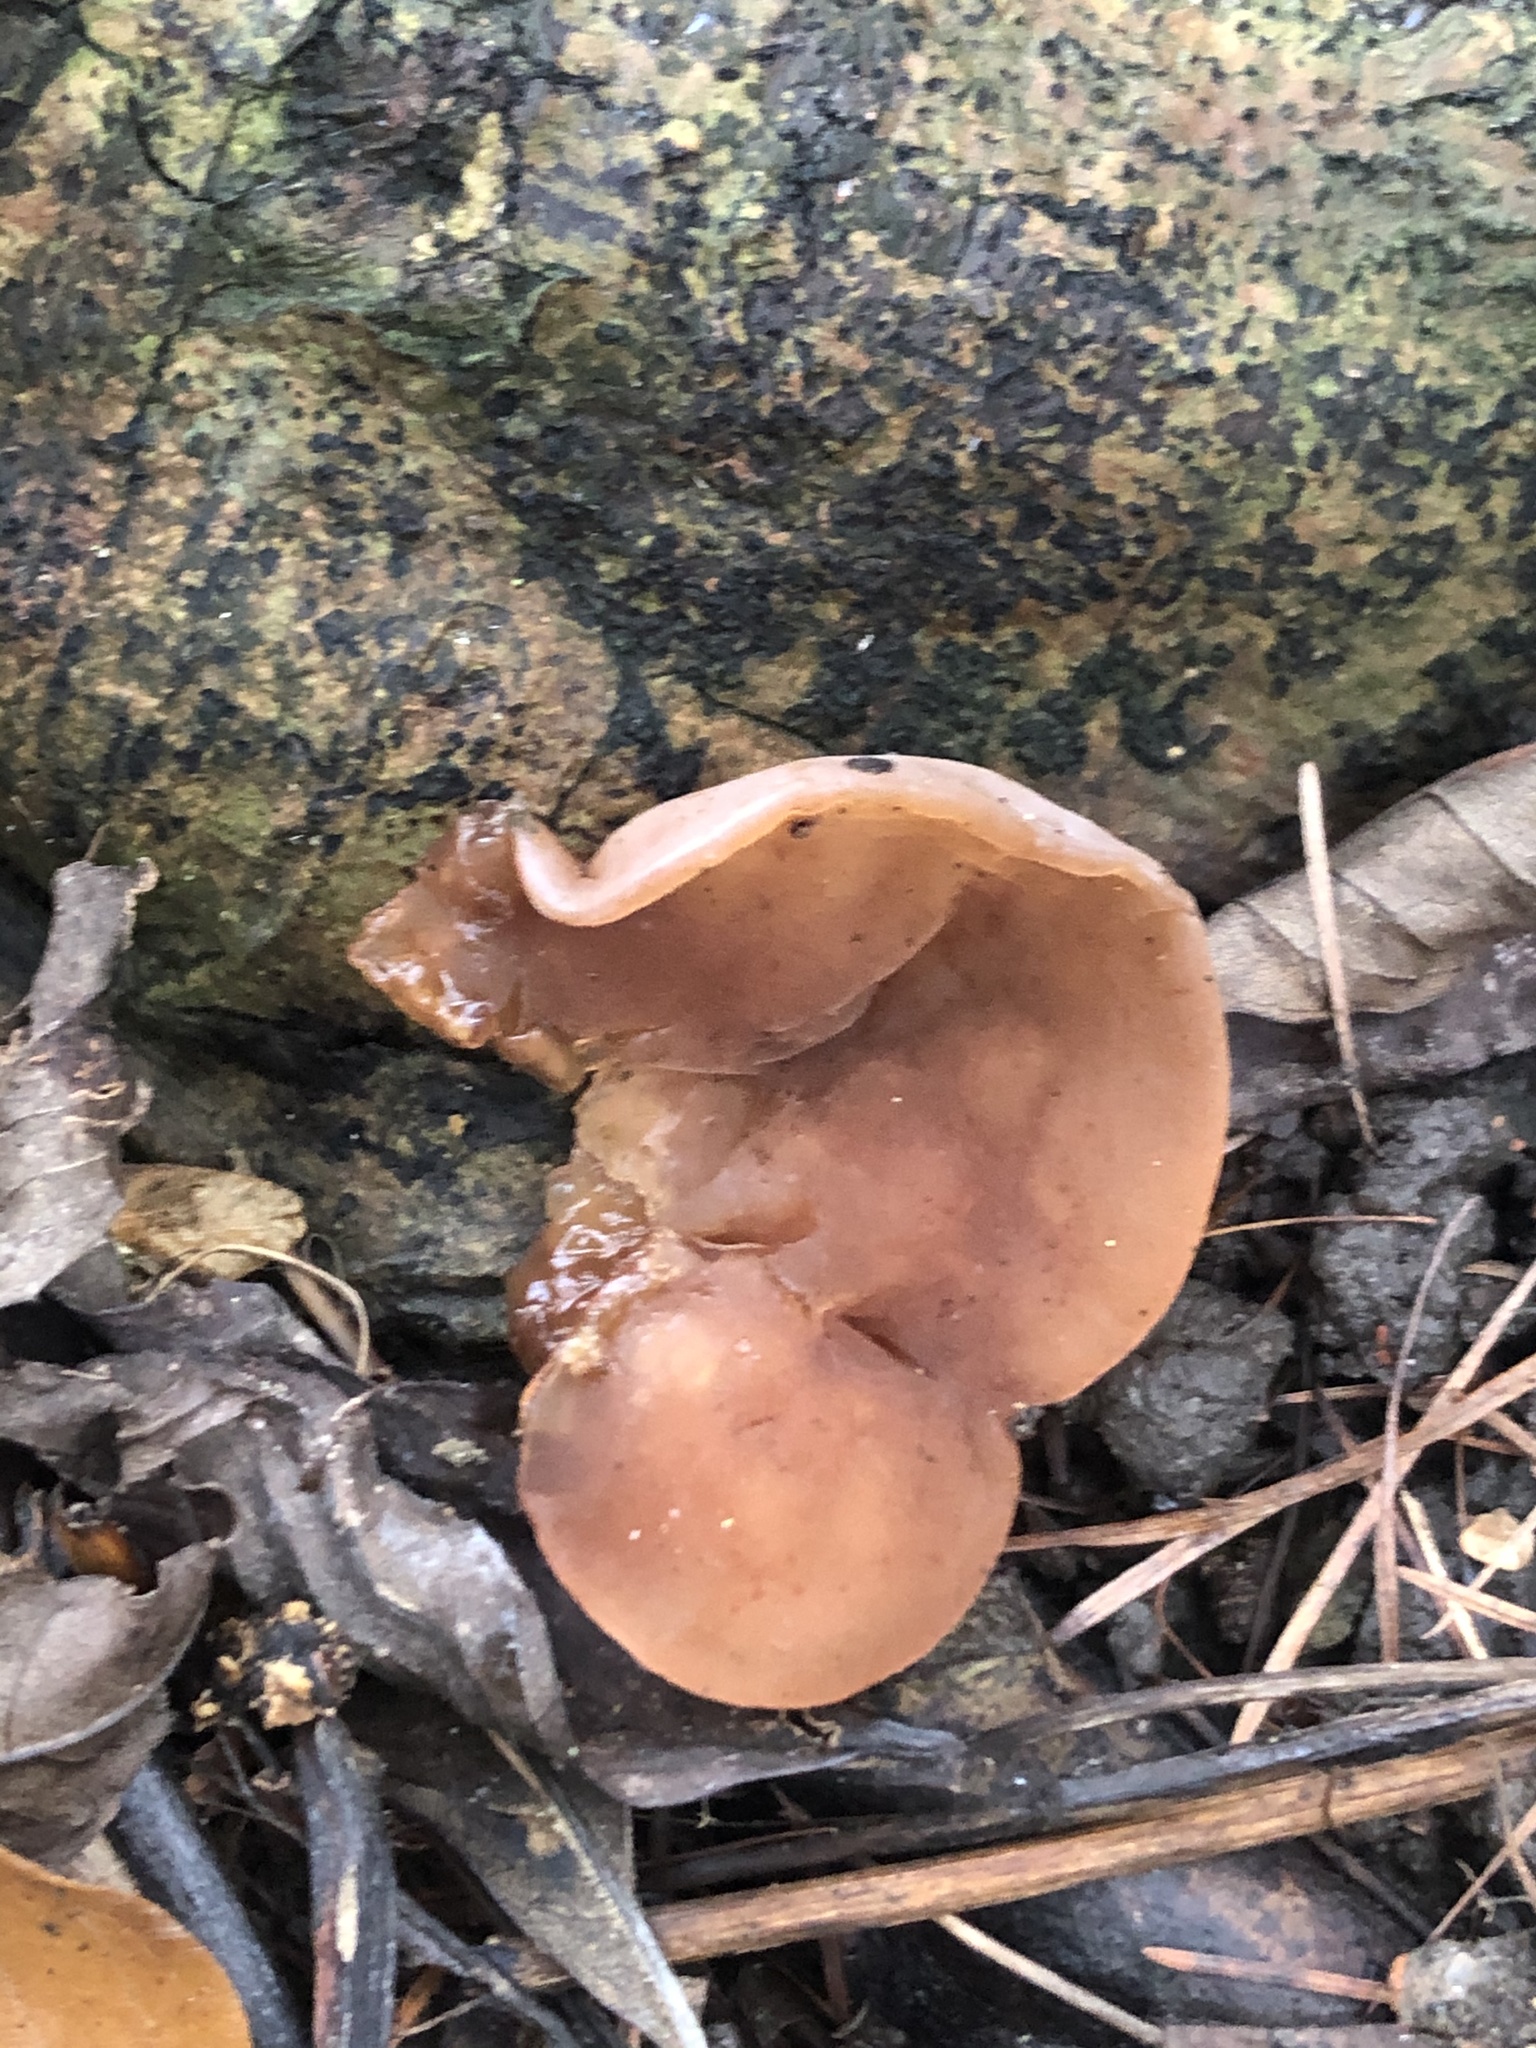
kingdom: Fungi
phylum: Basidiomycota
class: Agaricomycetes
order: Auriculariales
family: Auriculariaceae
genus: Auricularia
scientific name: Auricularia auricula-judae
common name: Jelly ear
